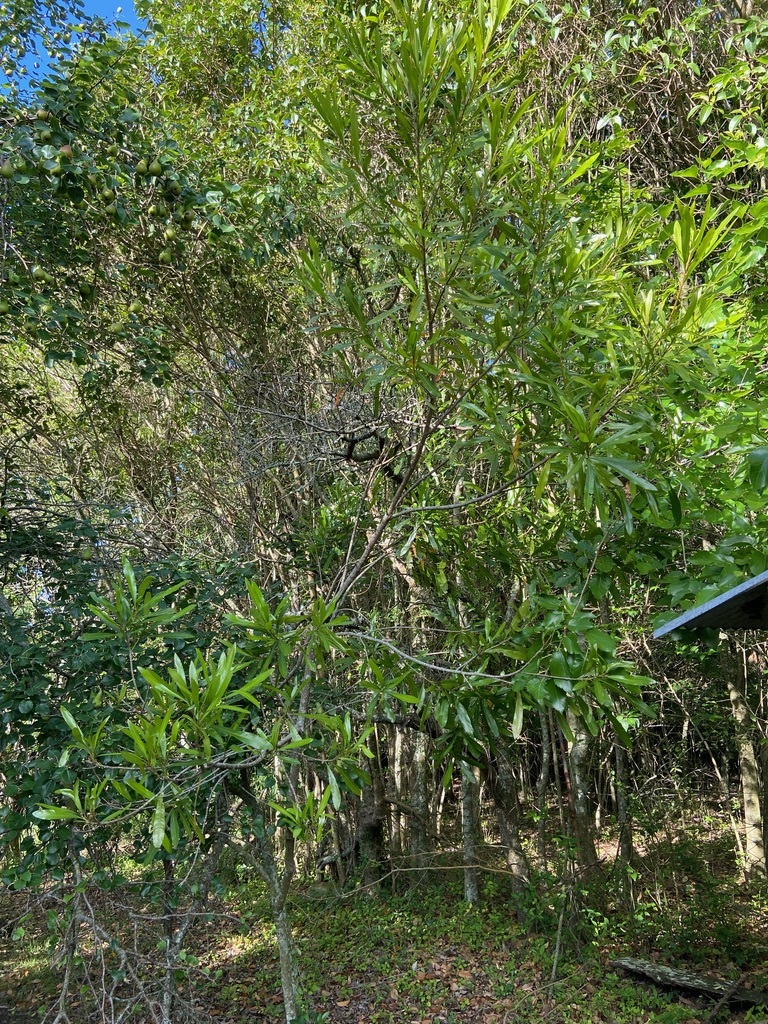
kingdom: Plantae
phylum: Tracheophyta
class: Magnoliopsida
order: Ericales
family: Sapotaceae
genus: Labatia
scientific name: Labatia salicifolia
